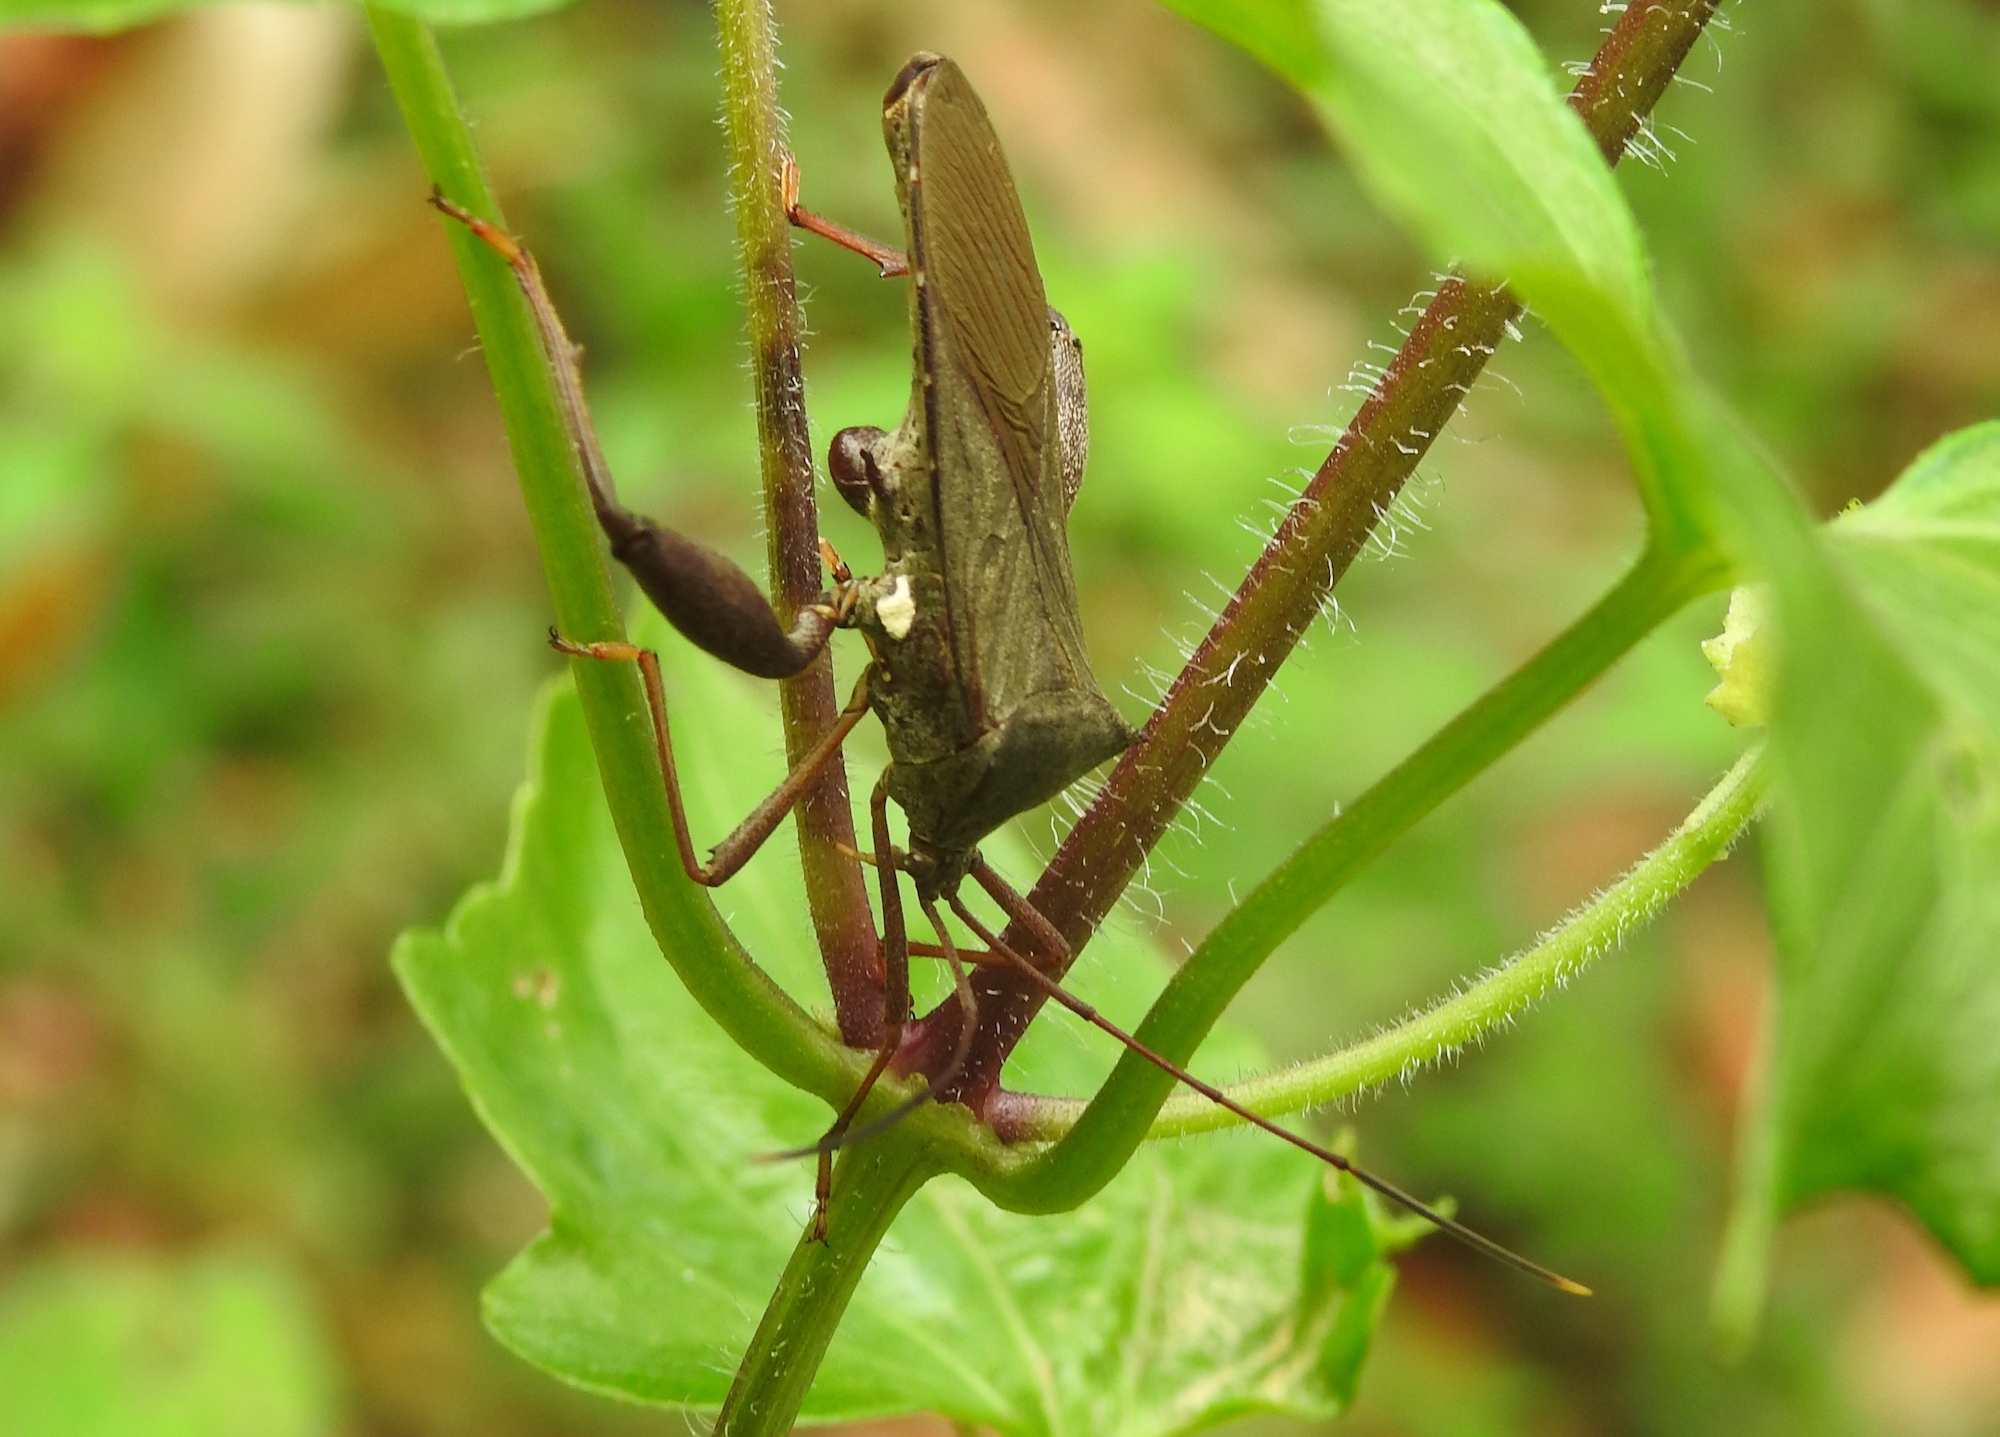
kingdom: Animalia
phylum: Arthropoda
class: Insecta
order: Hemiptera
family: Coreidae
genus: Mictis
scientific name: Mictis longicornis
